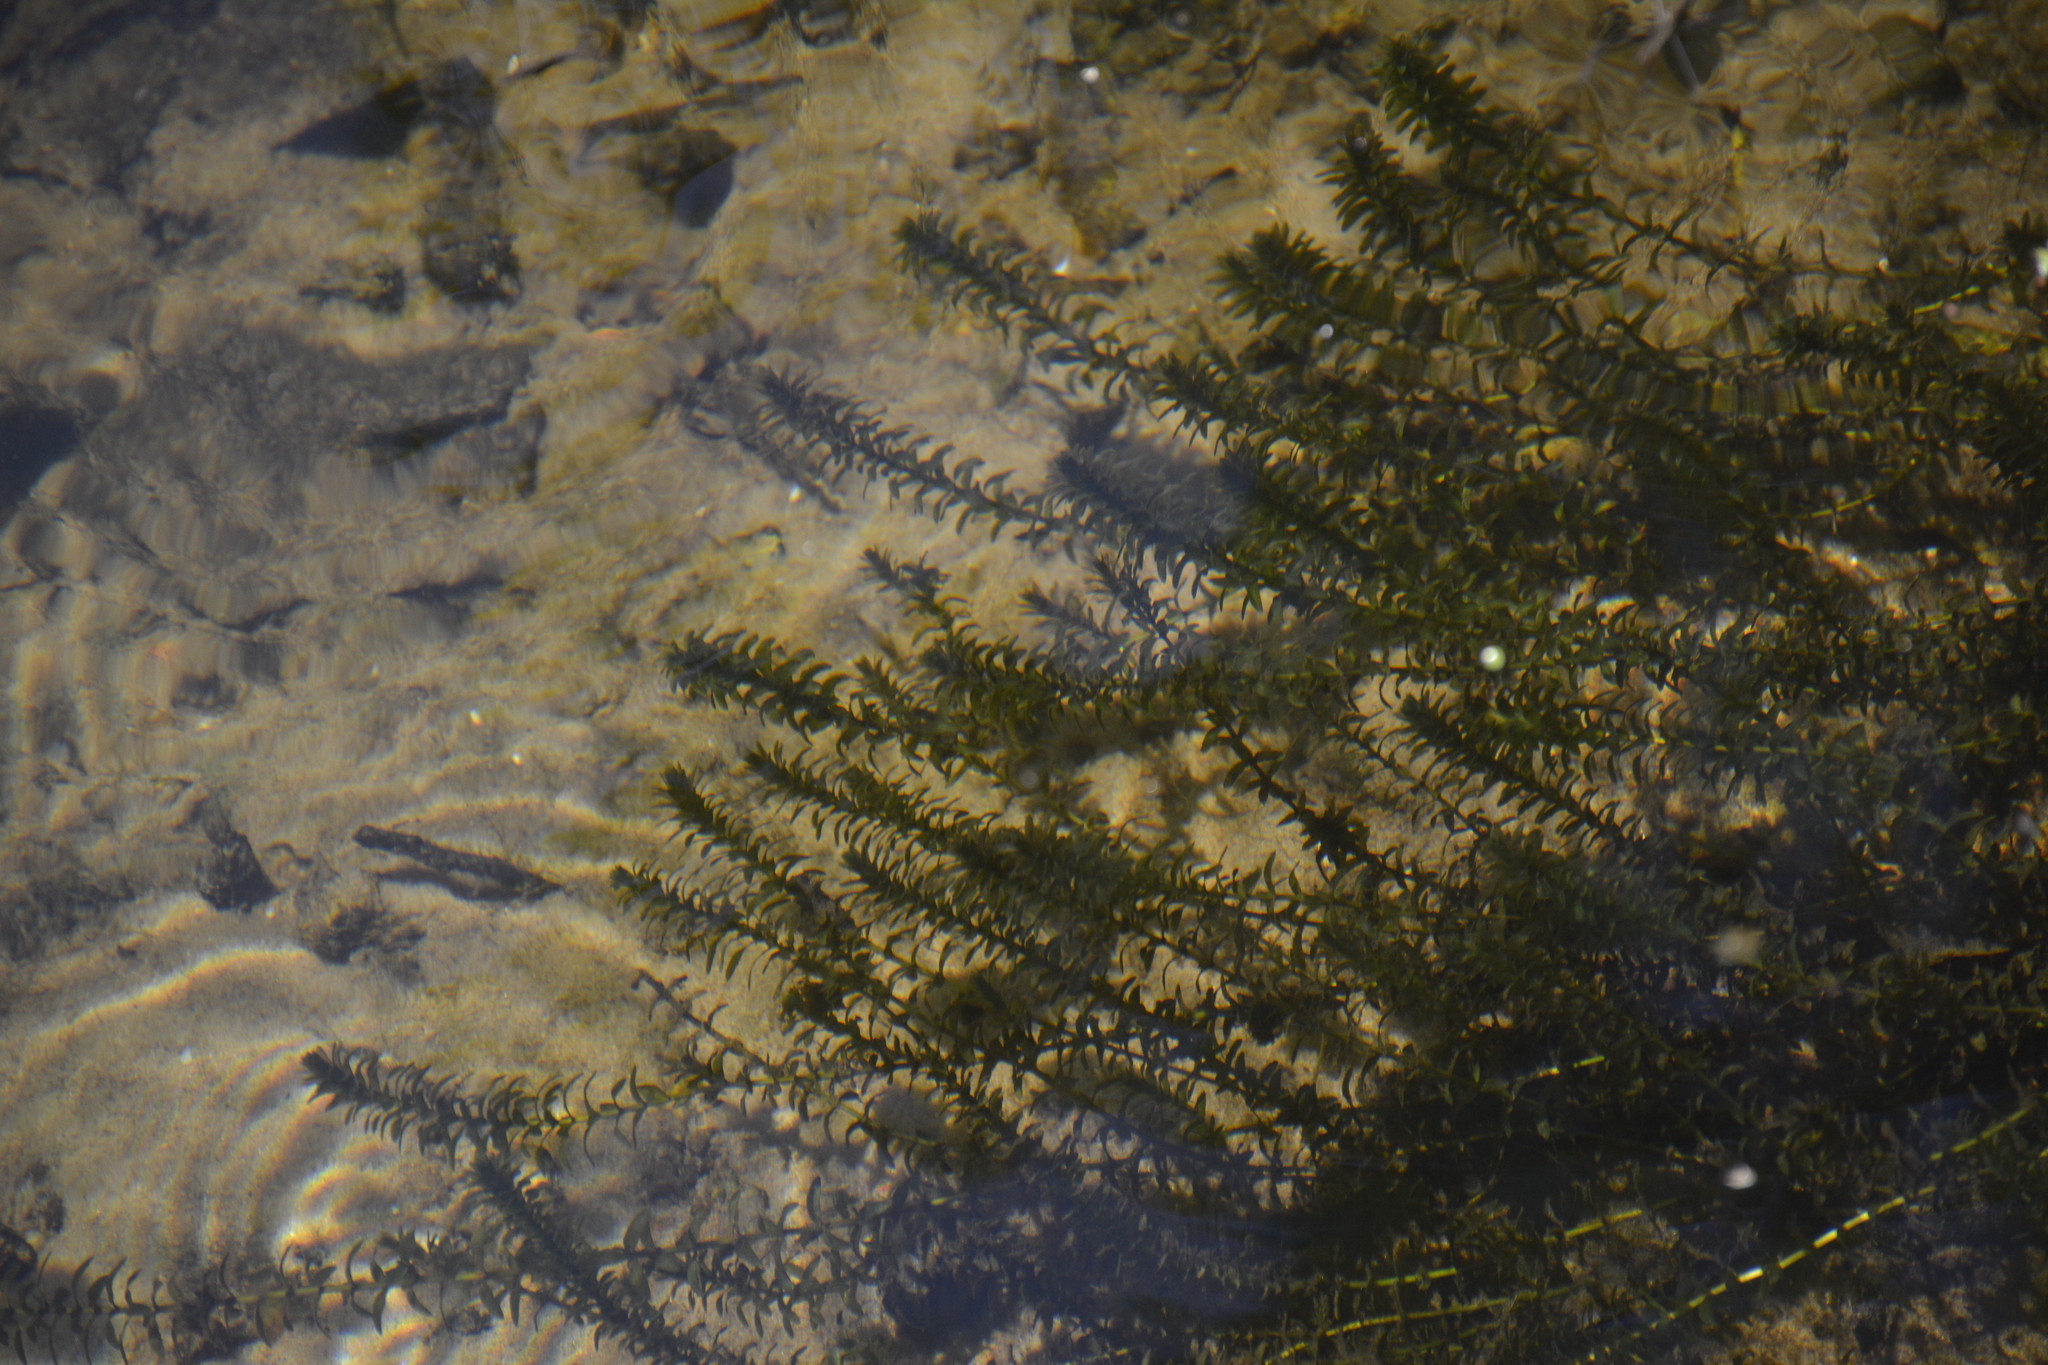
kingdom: Plantae
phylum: Tracheophyta
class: Liliopsida
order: Alismatales
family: Hydrocharitaceae
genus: Elodea
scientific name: Elodea canadensis
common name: Canadian waterweed
